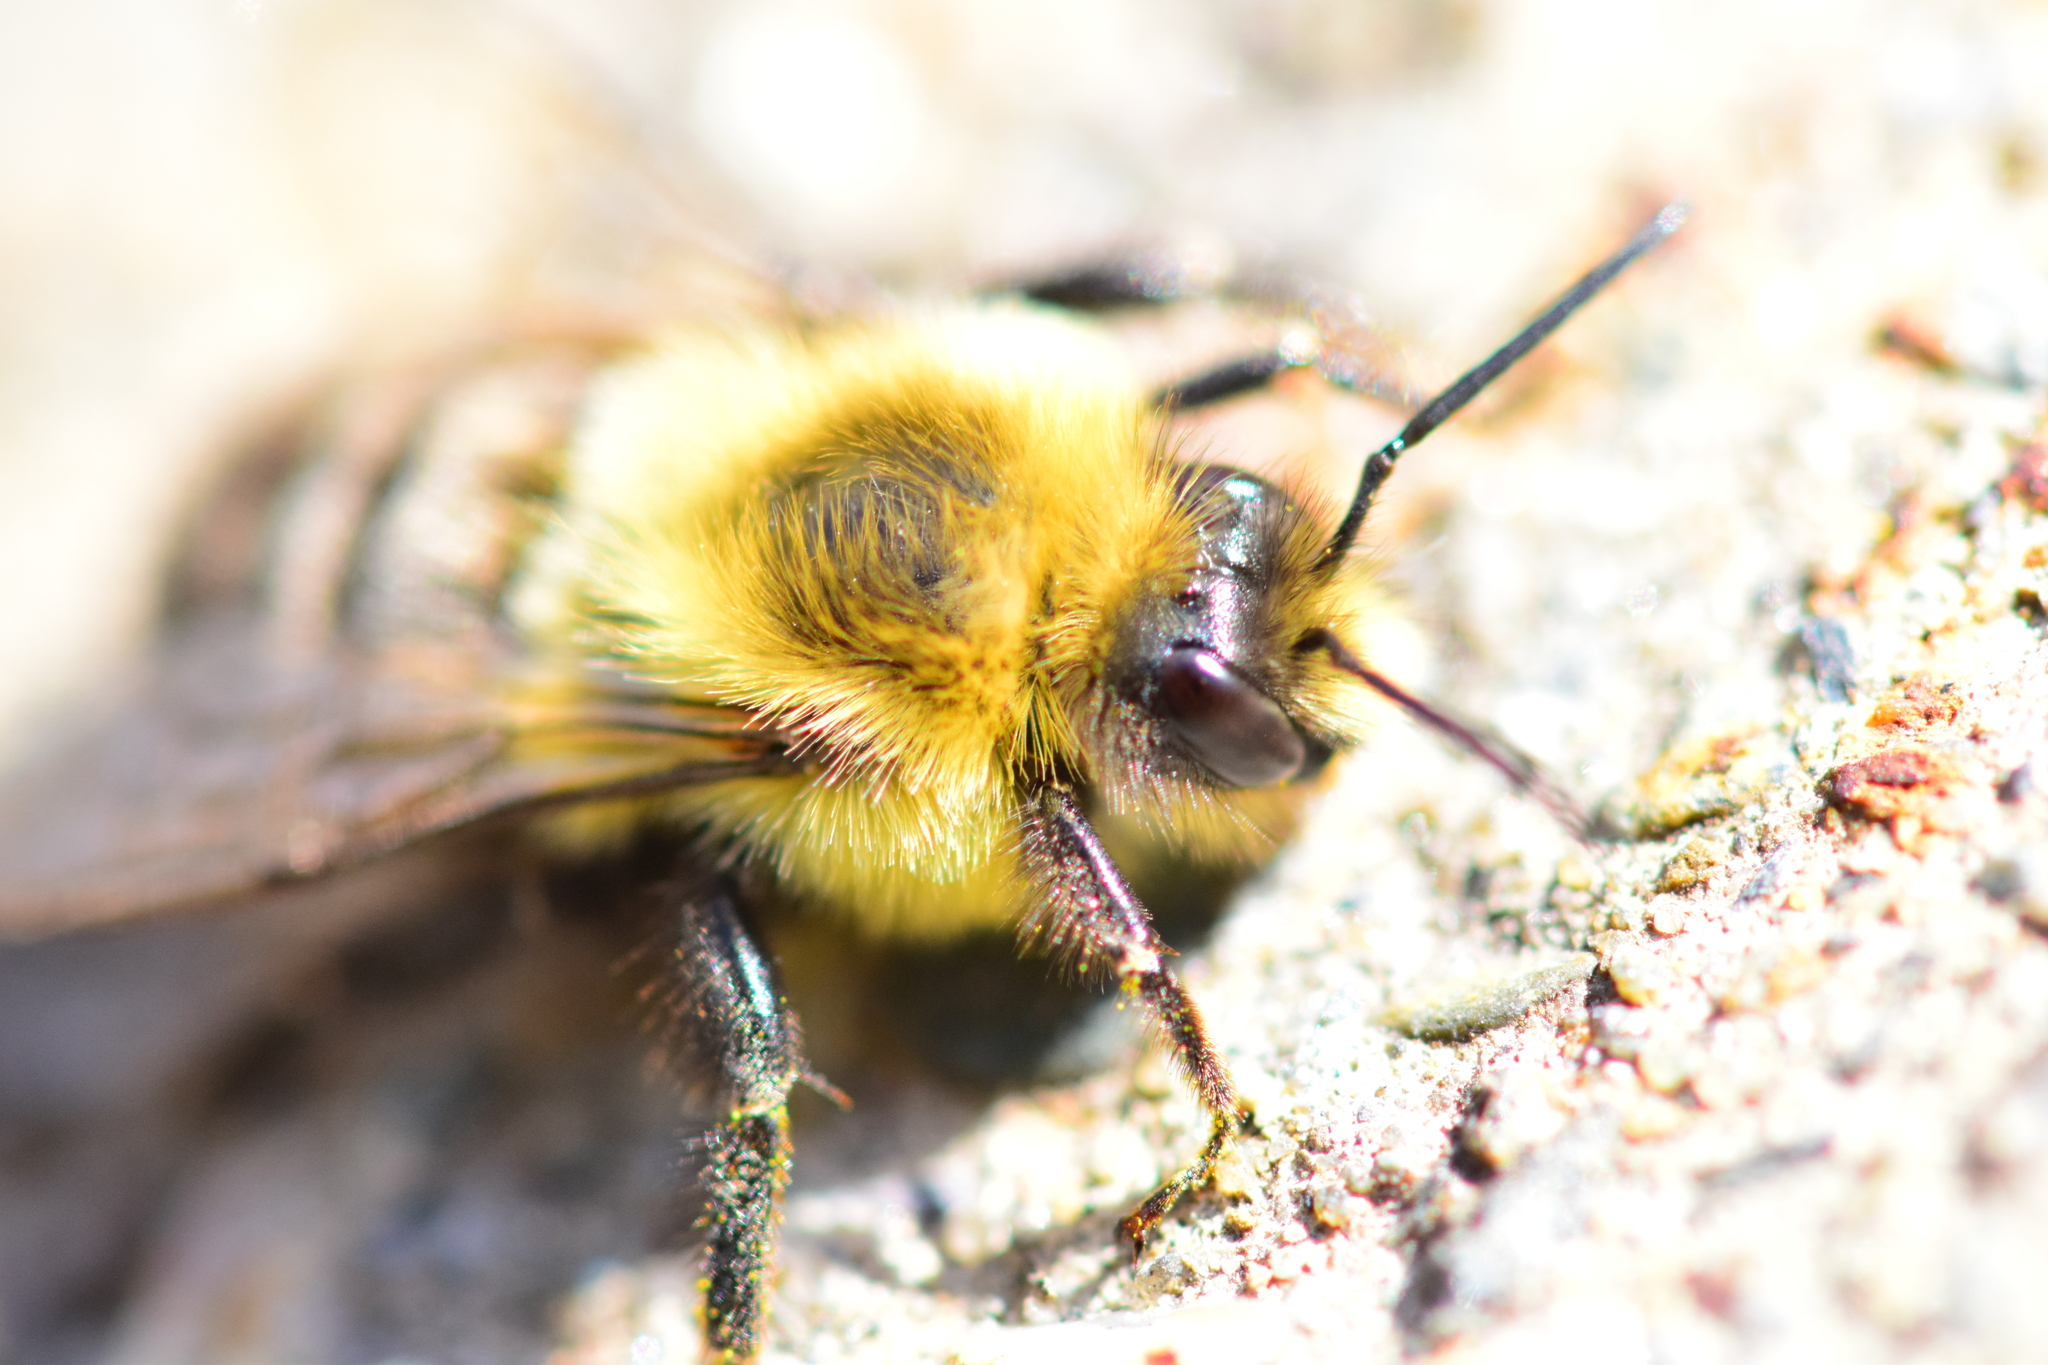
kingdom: Animalia
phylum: Arthropoda
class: Insecta
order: Hymenoptera
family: Apidae
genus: Bombus
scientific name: Bombus impatiens
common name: Common eastern bumble bee
